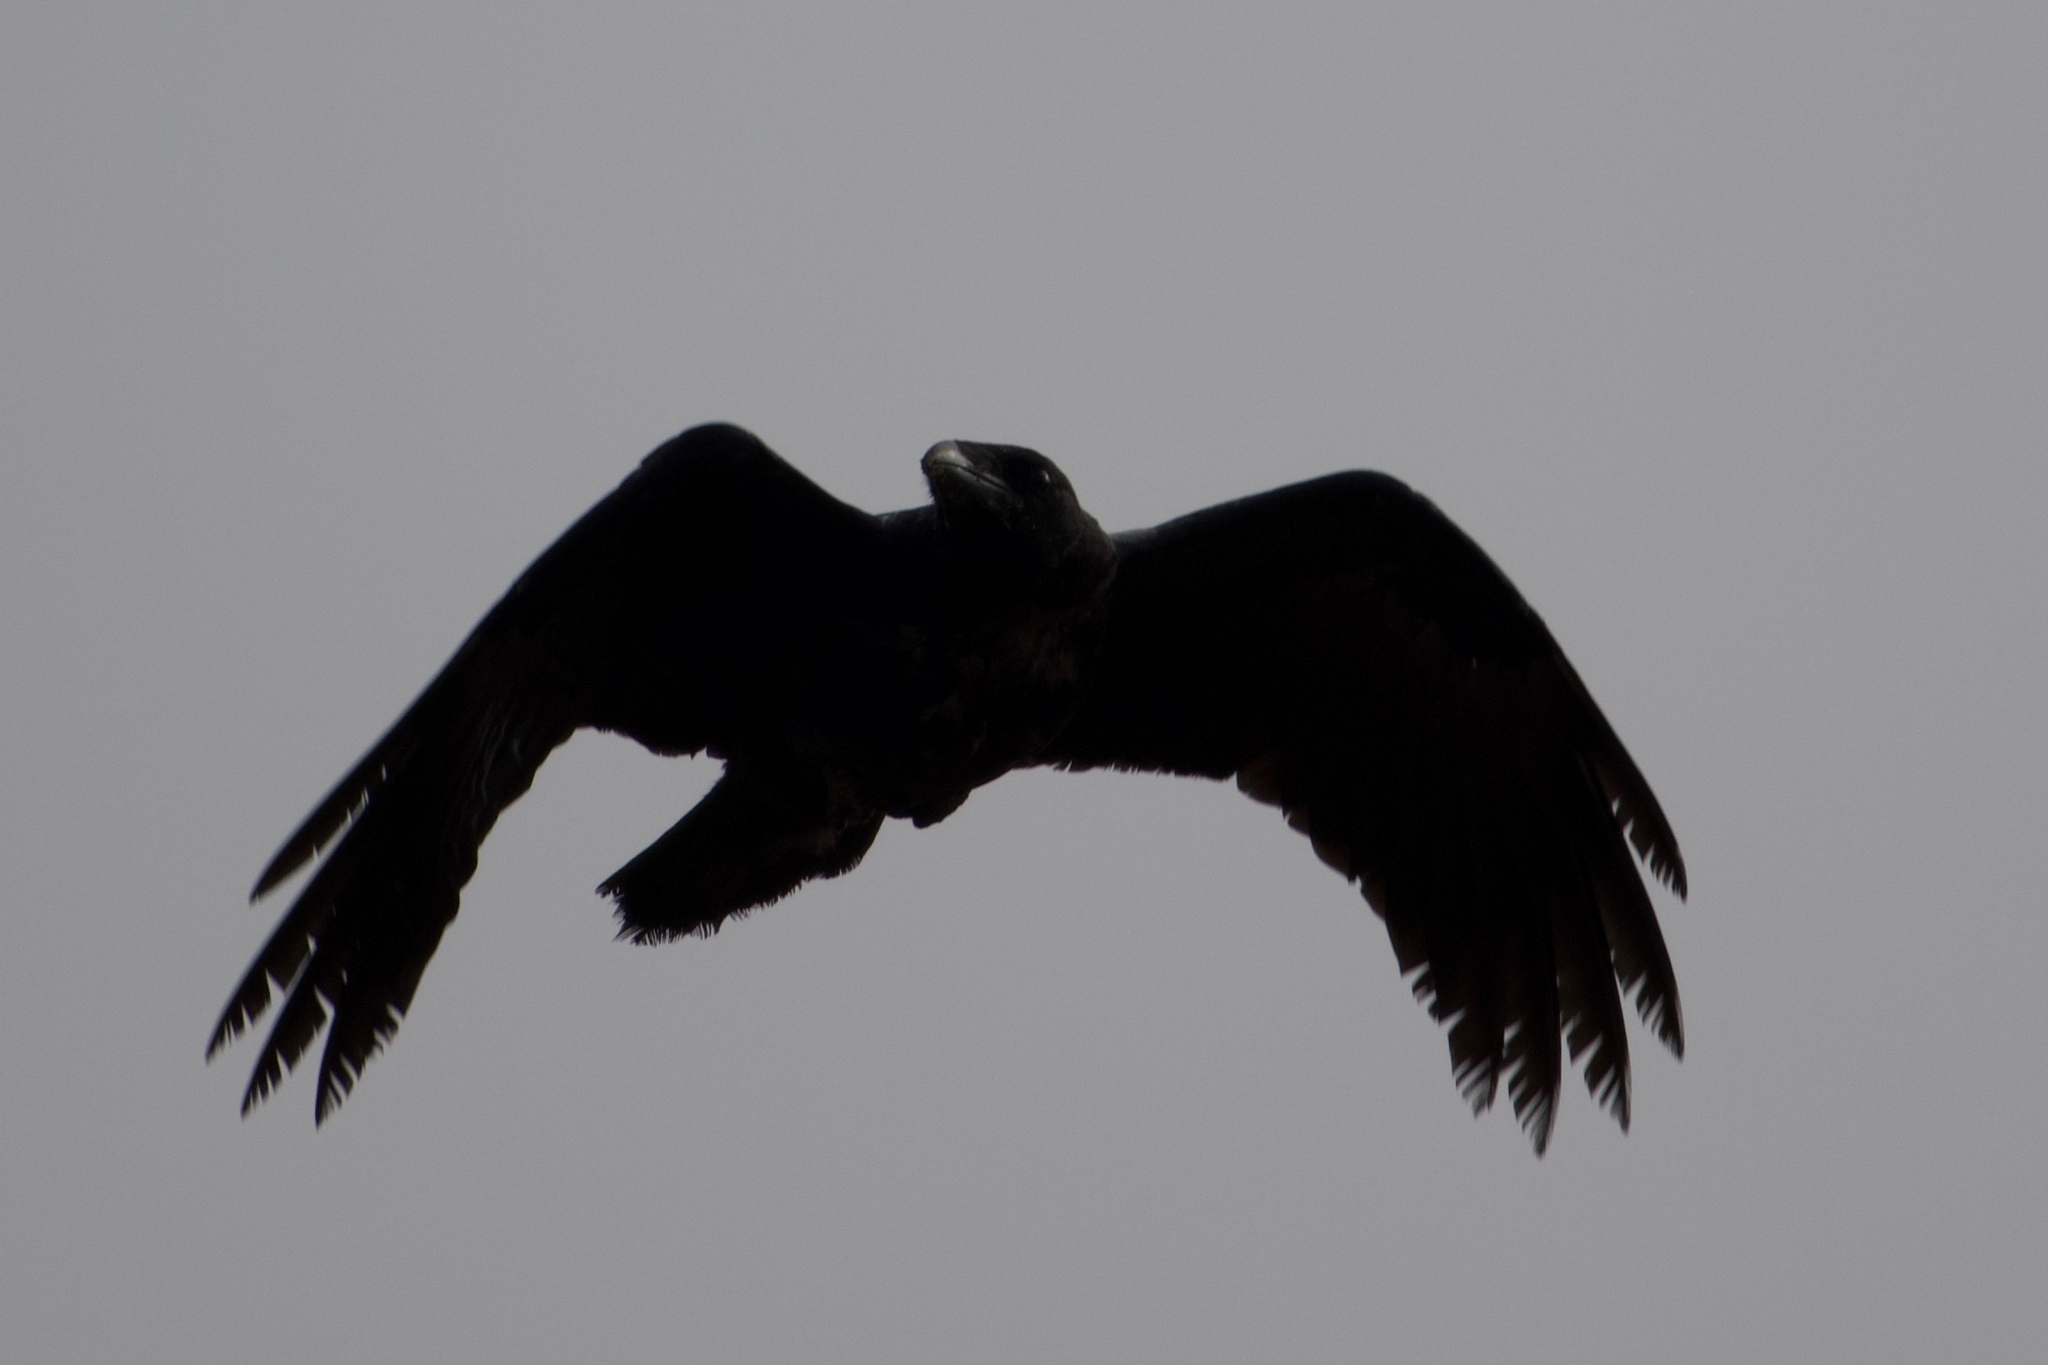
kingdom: Animalia
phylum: Chordata
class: Aves
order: Passeriformes
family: Corvidae
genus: Corvus
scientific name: Corvus corax
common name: Common raven
